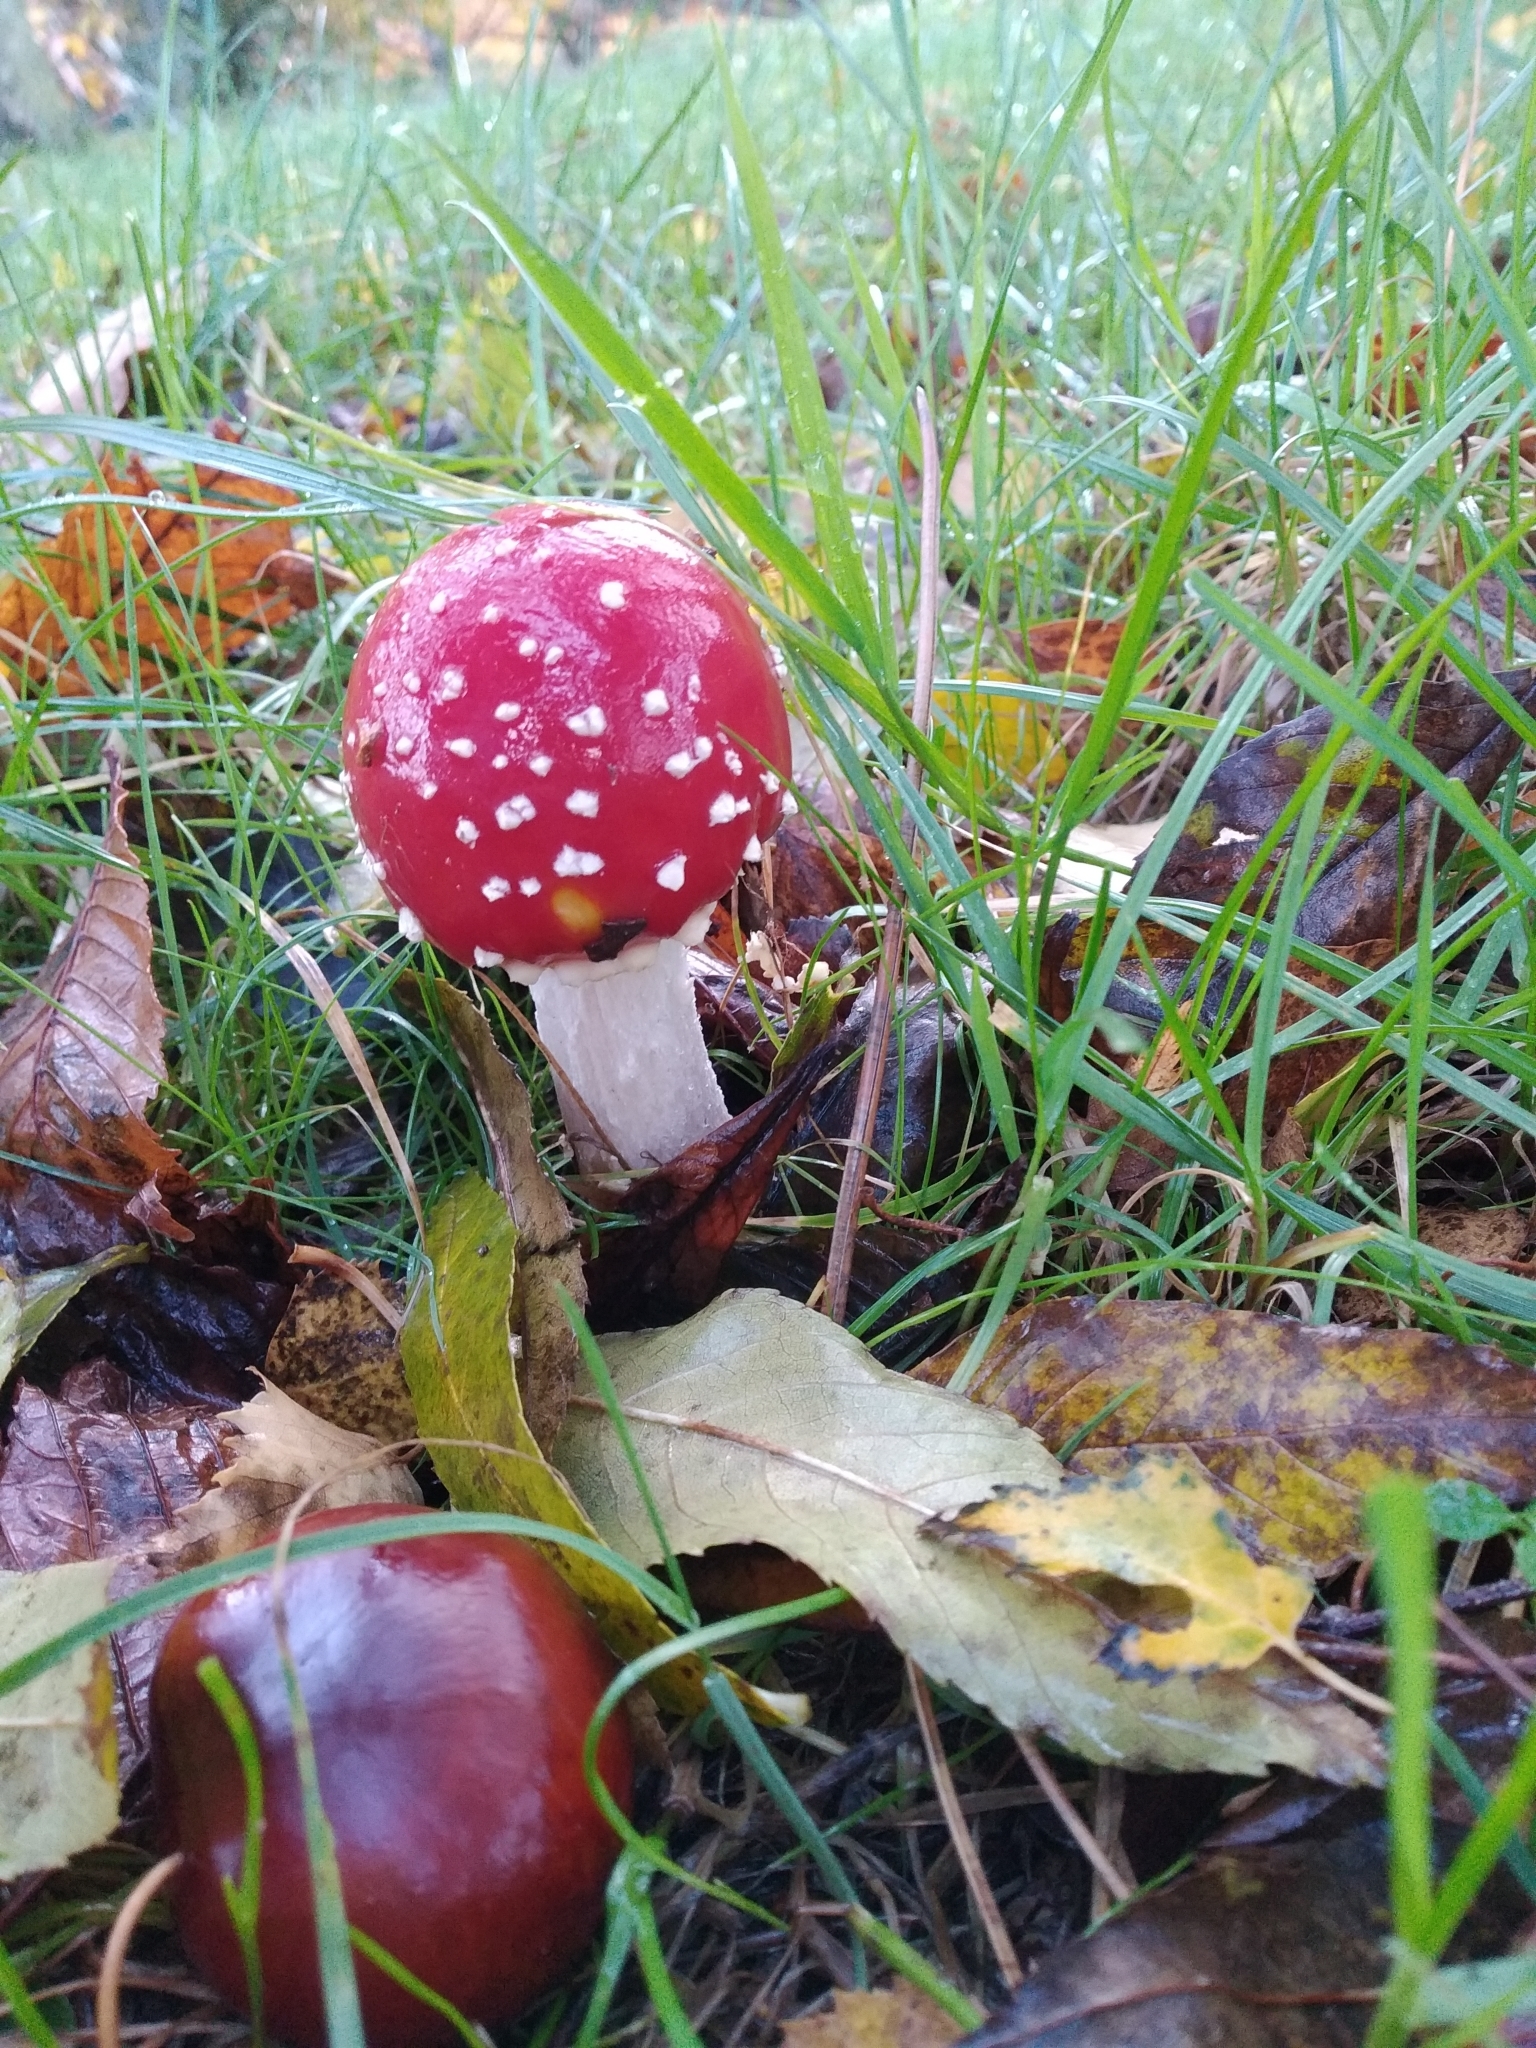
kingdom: Fungi
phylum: Basidiomycota
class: Agaricomycetes
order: Agaricales
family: Amanitaceae
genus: Amanita
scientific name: Amanita muscaria
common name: Fly agaric
